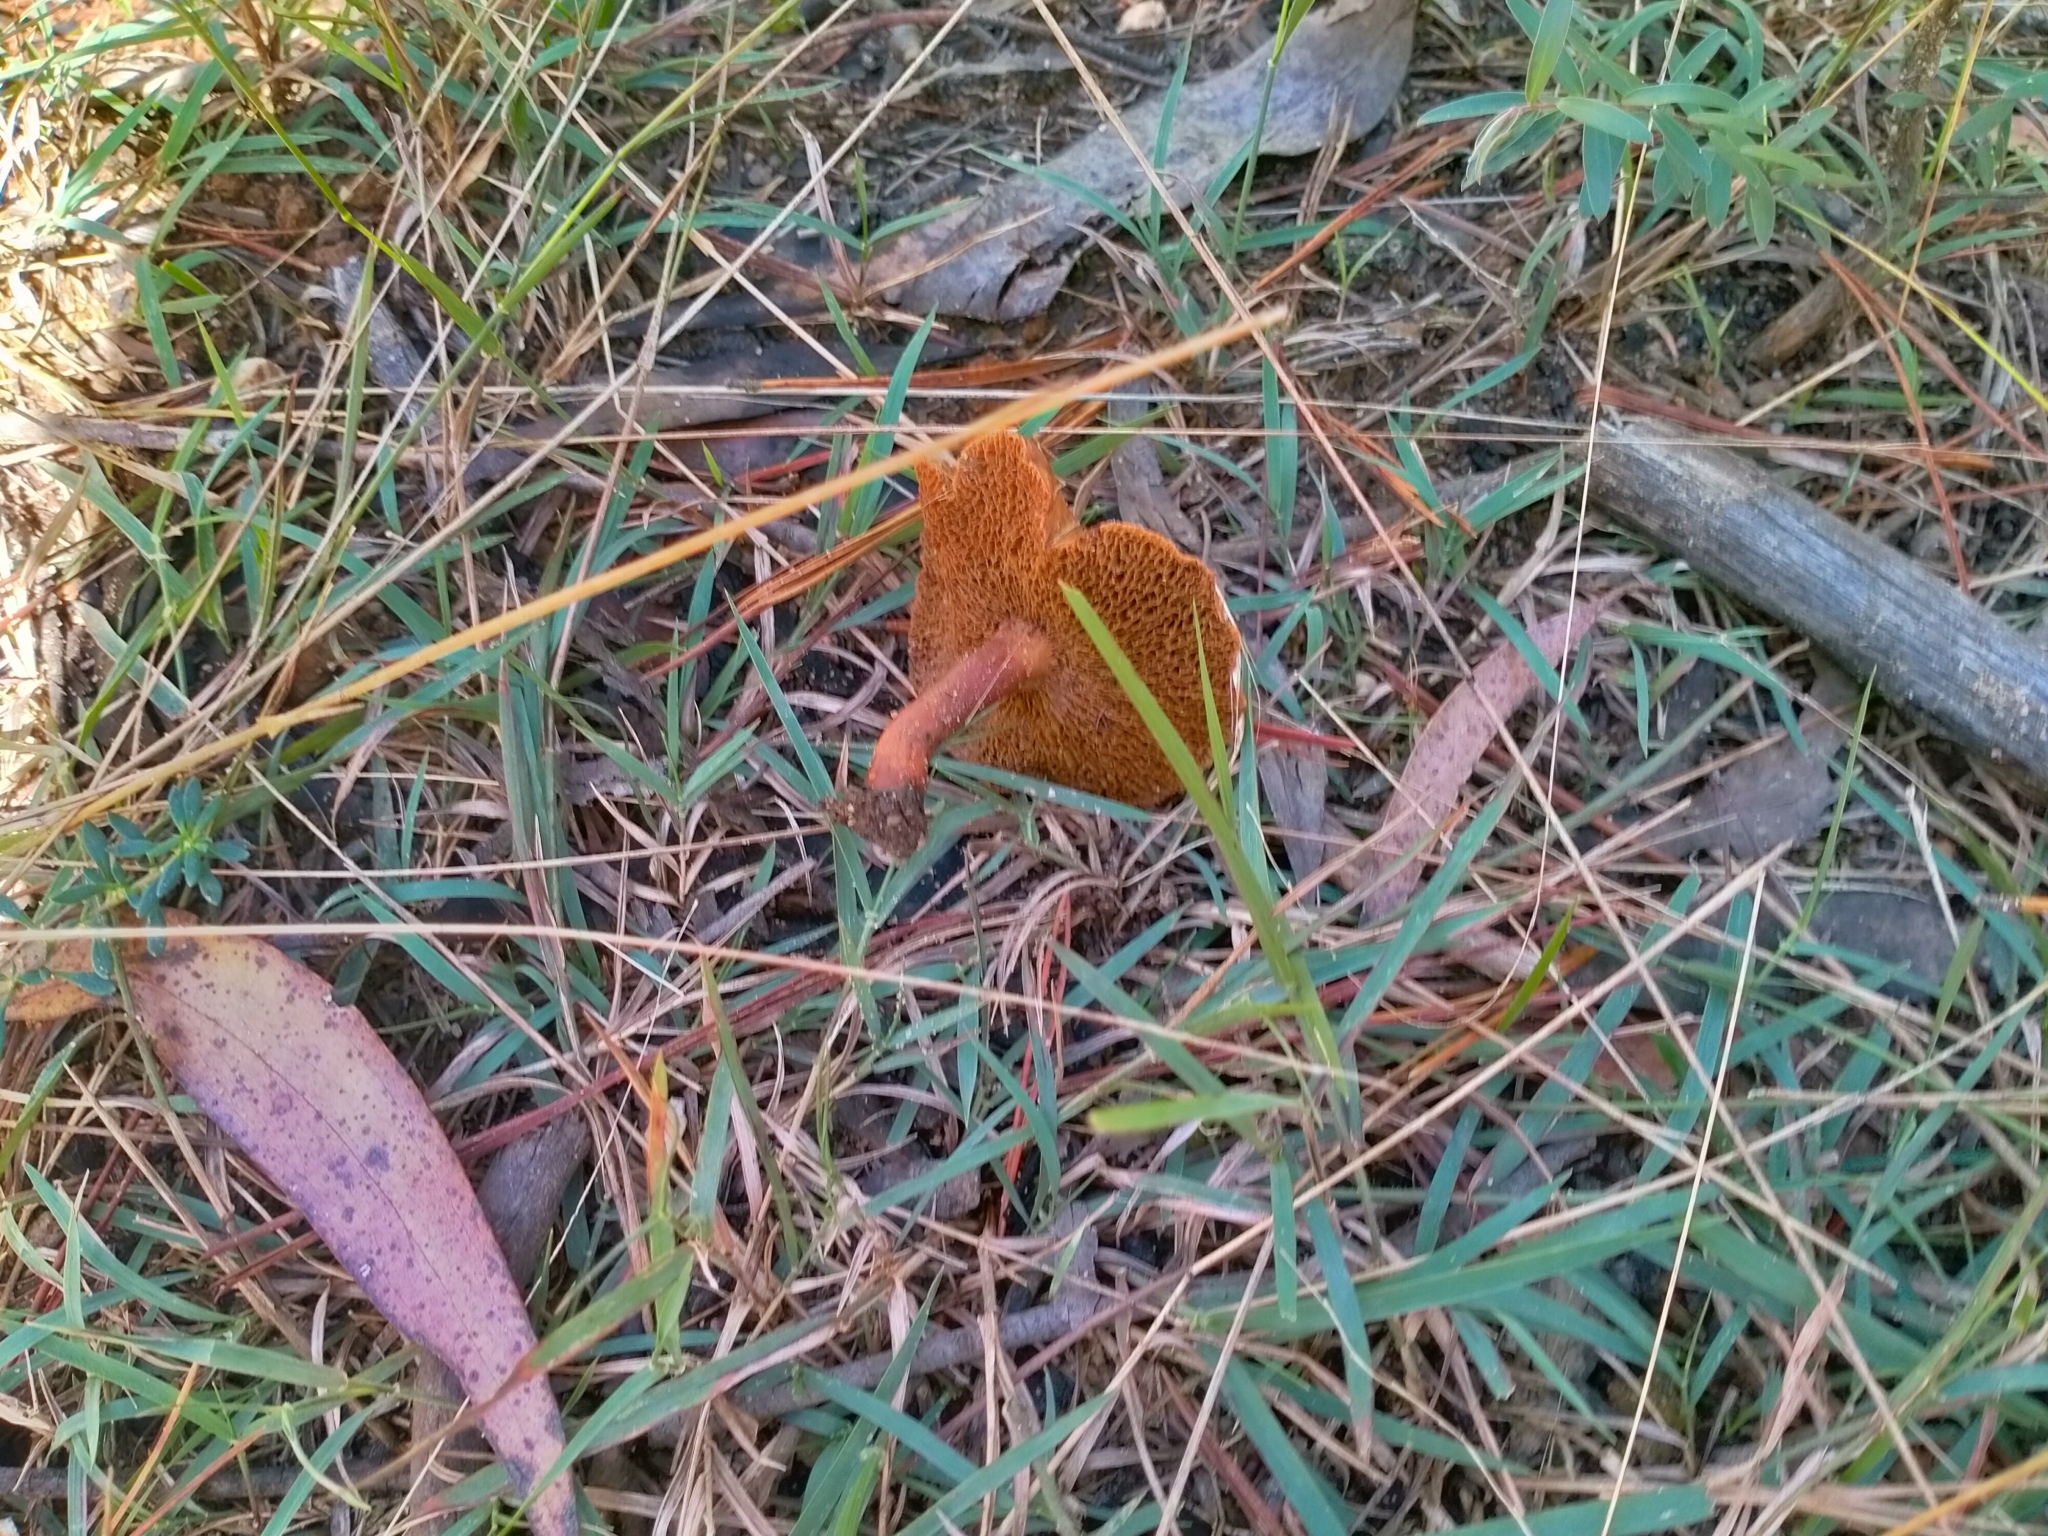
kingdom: Fungi
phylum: Basidiomycota
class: Agaricomycetes
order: Boletales
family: Boletaceae
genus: Chalciporus
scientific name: Chalciporus piperatus
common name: Peppery bolete
